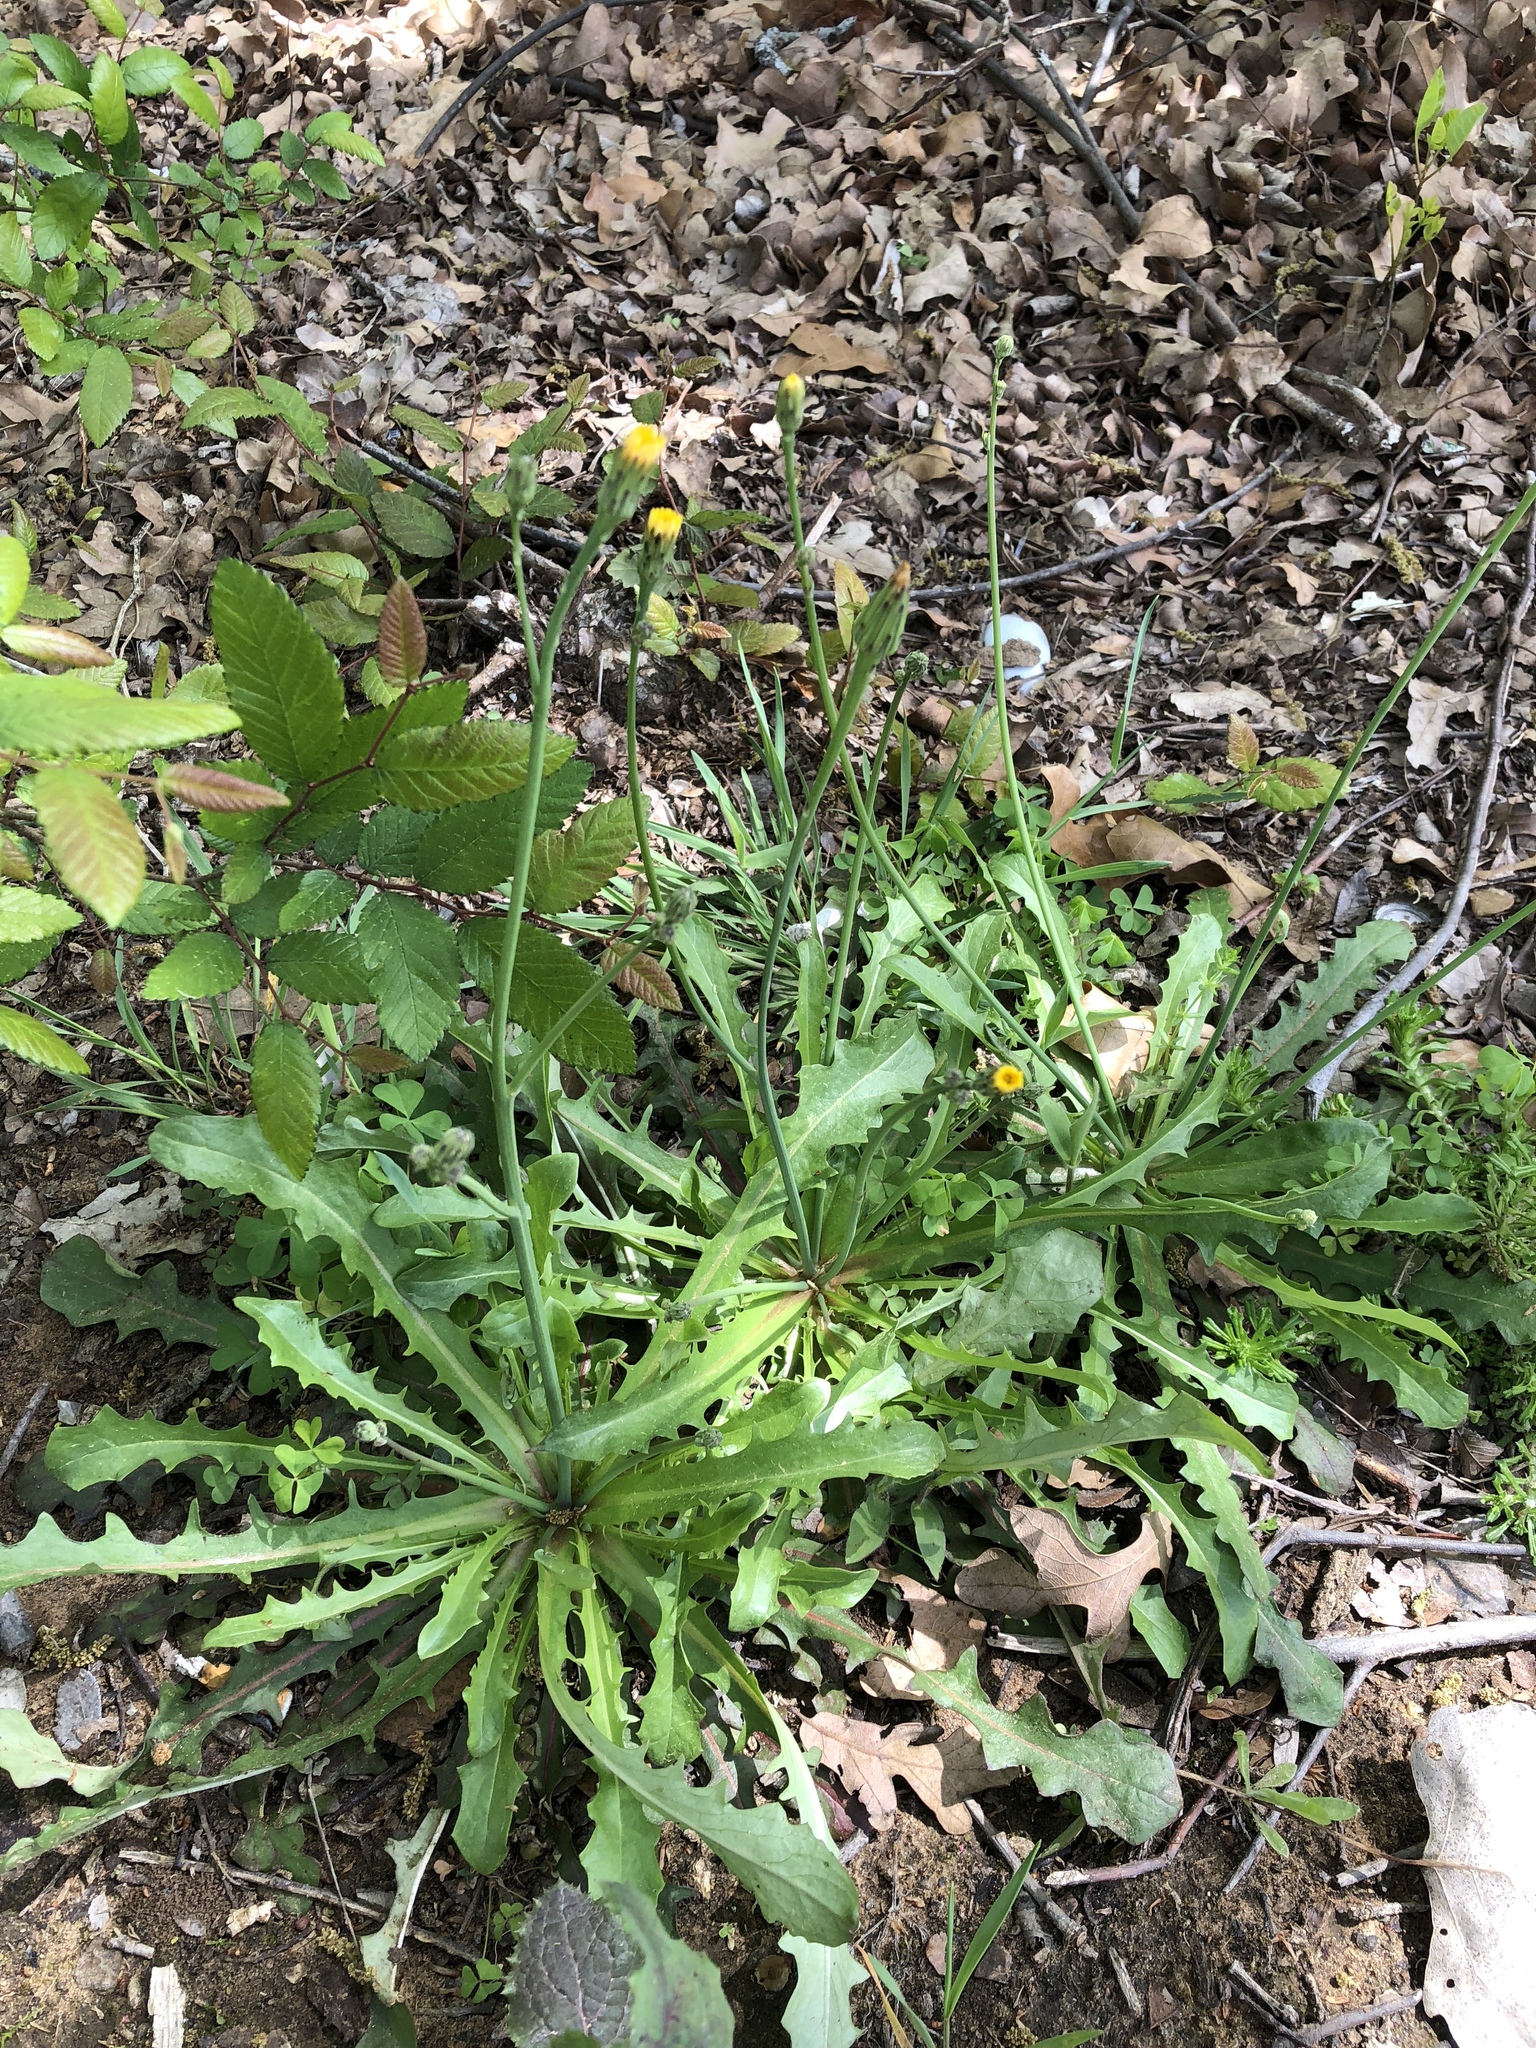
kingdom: Plantae
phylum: Tracheophyta
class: Magnoliopsida
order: Asterales
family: Asteraceae
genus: Hypochaeris
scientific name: Hypochaeris glabra
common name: Smooth catsear
